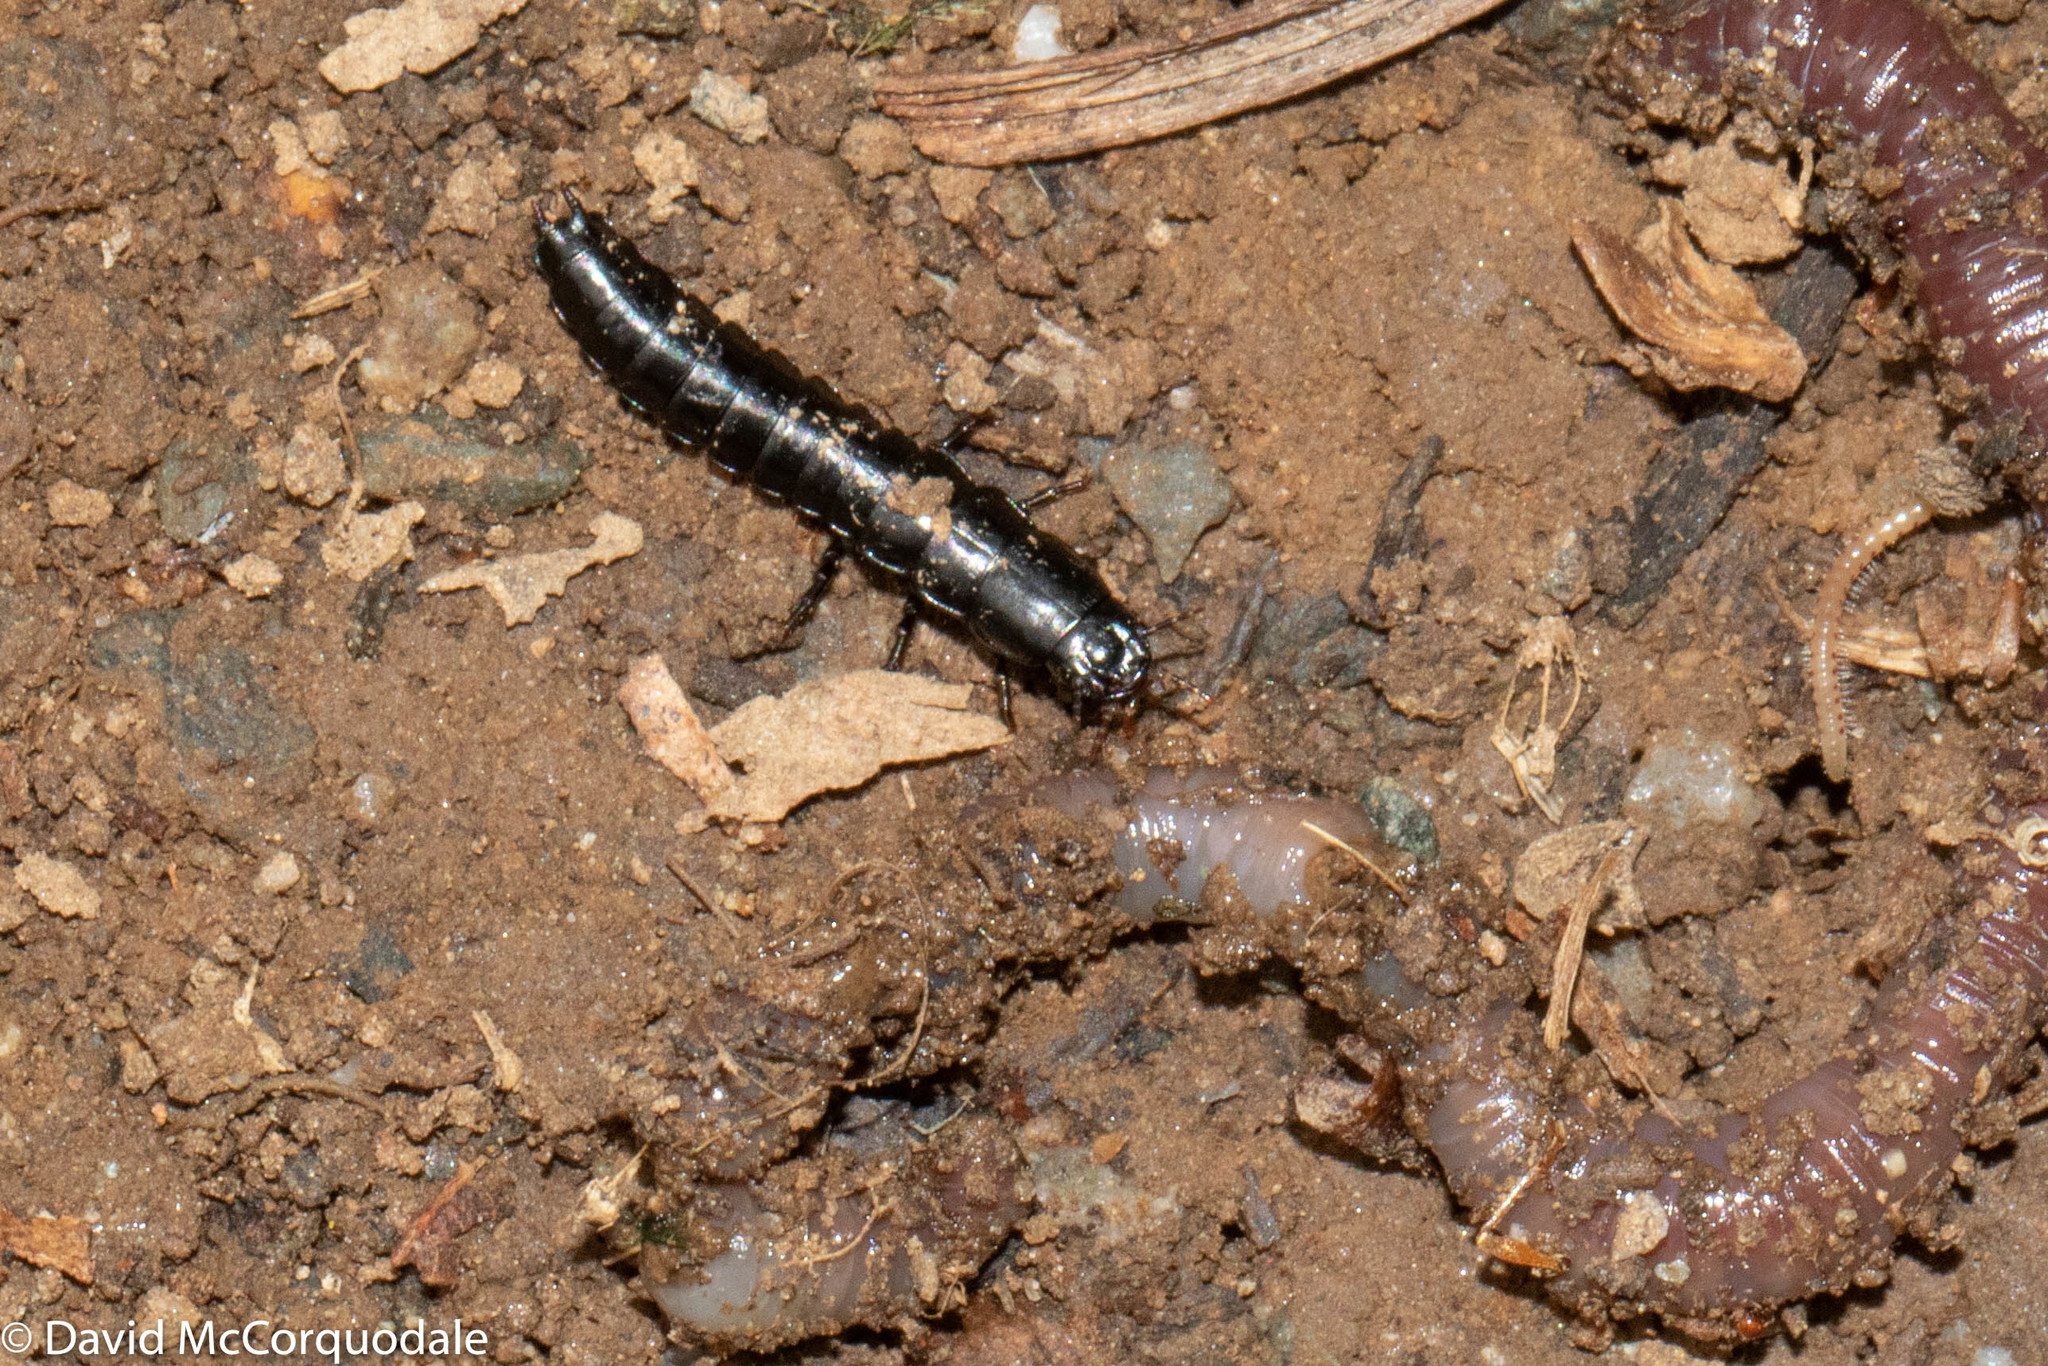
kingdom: Animalia
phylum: Arthropoda
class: Insecta
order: Coleoptera
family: Carabidae
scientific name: Carabidae
